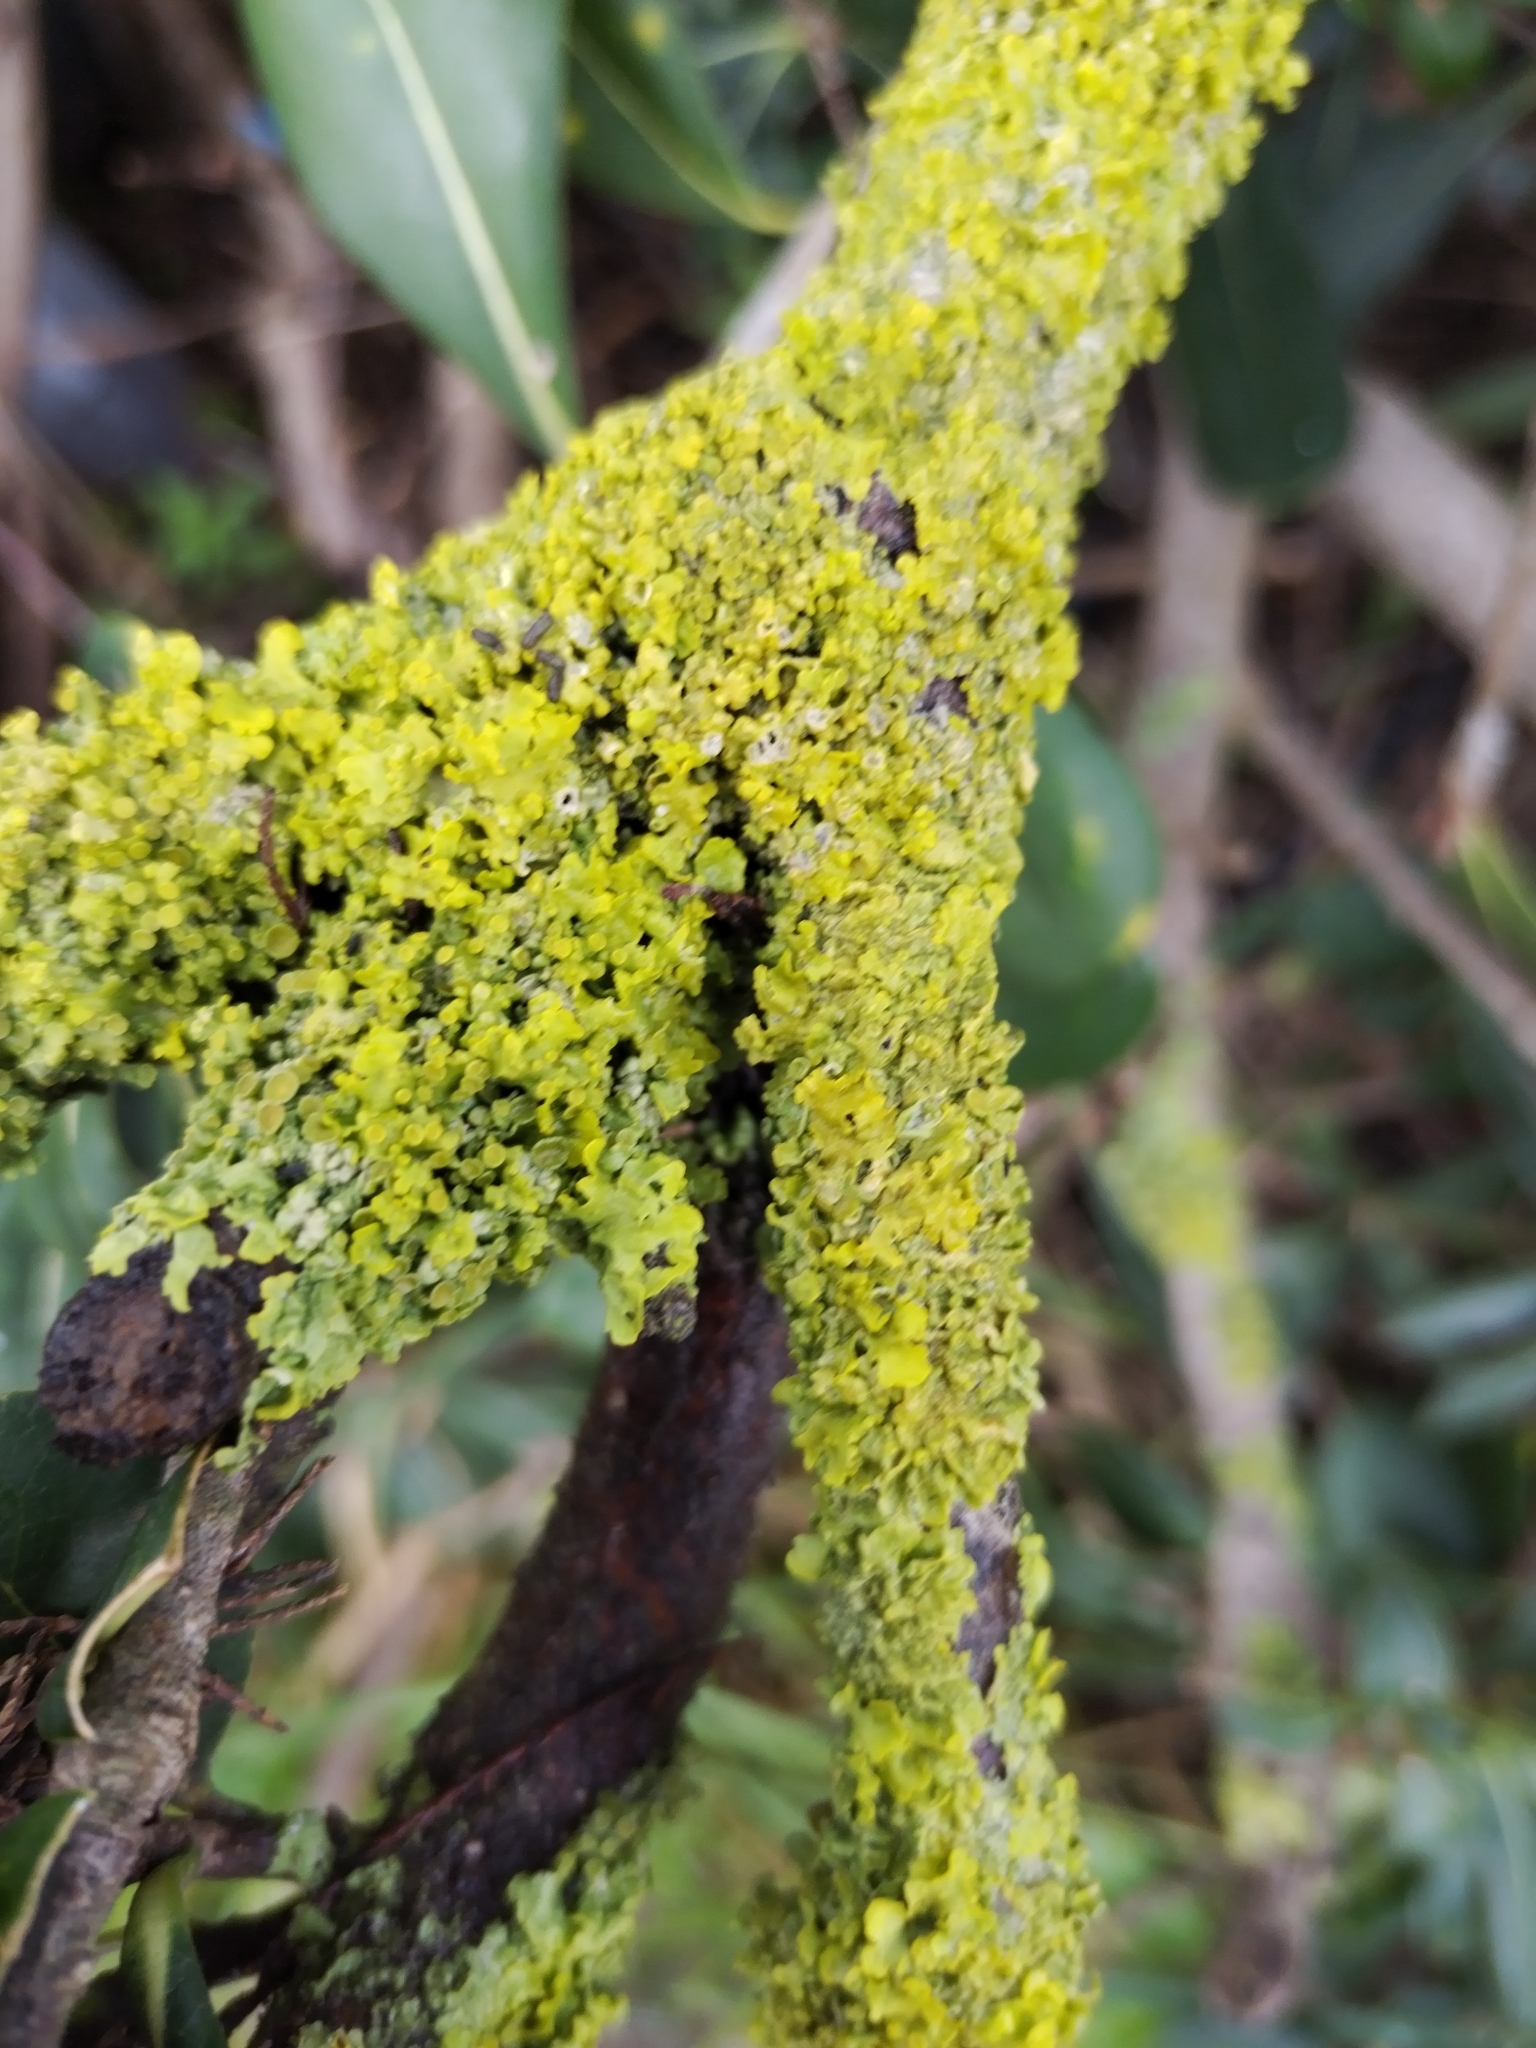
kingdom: Fungi
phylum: Ascomycota
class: Lecanoromycetes
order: Teloschistales
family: Teloschistaceae
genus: Xanthoria
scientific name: Xanthoria parietina
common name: Common orange lichen
